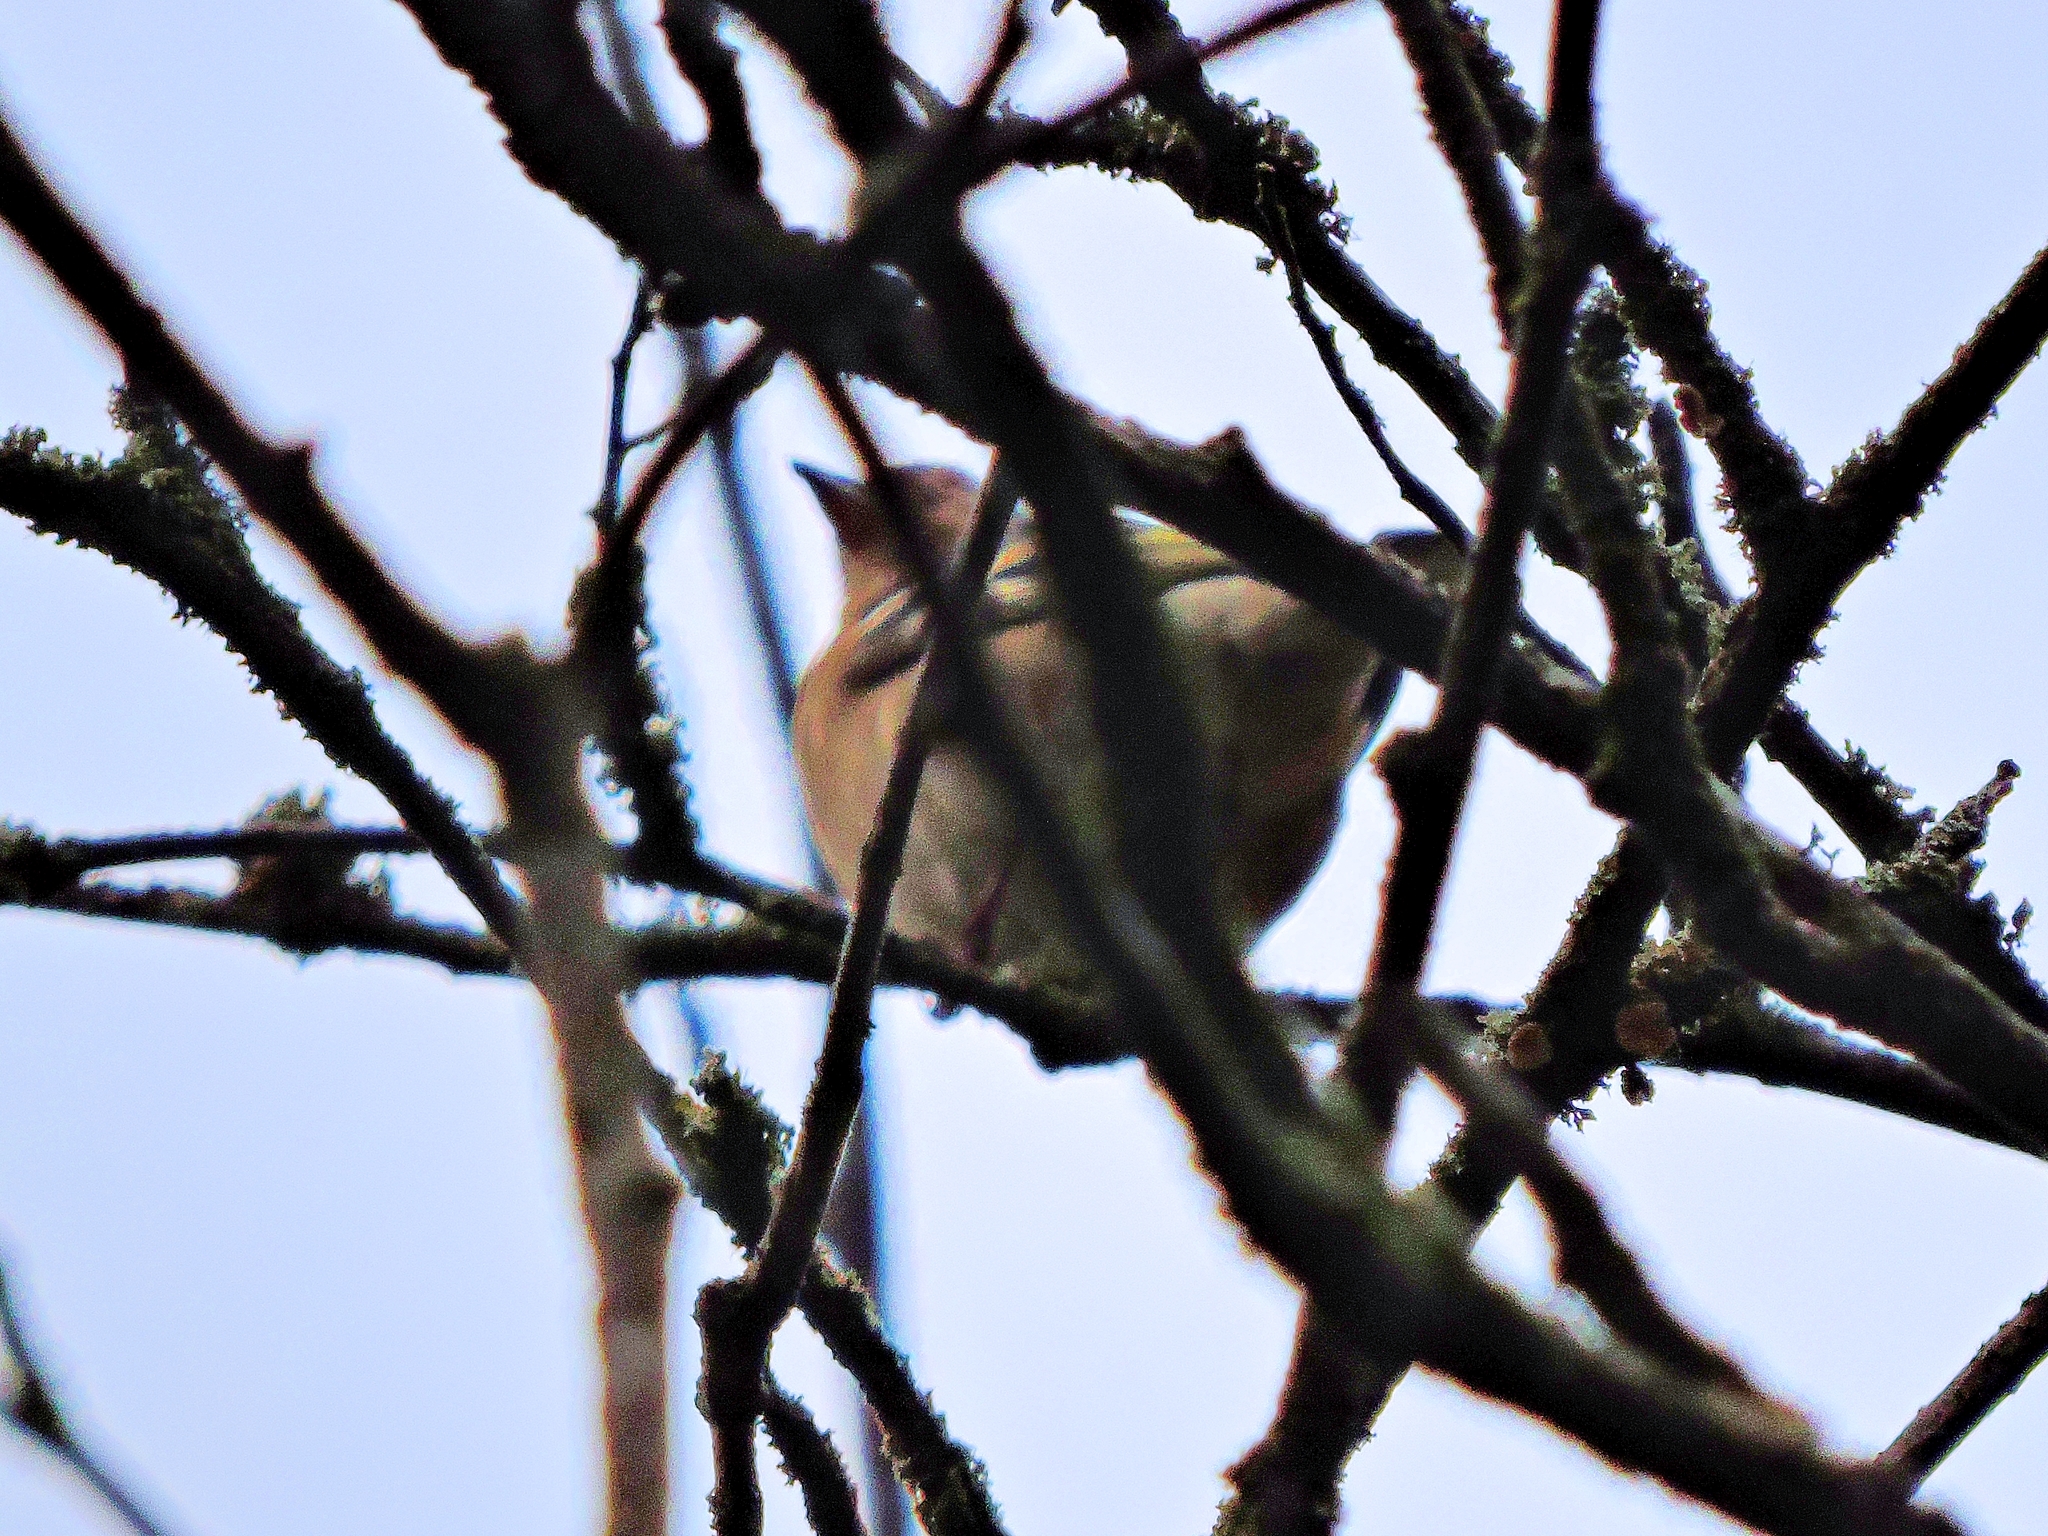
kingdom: Animalia
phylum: Chordata
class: Aves
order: Passeriformes
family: Fringillidae
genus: Fringilla
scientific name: Fringilla coelebs
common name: Common chaffinch
